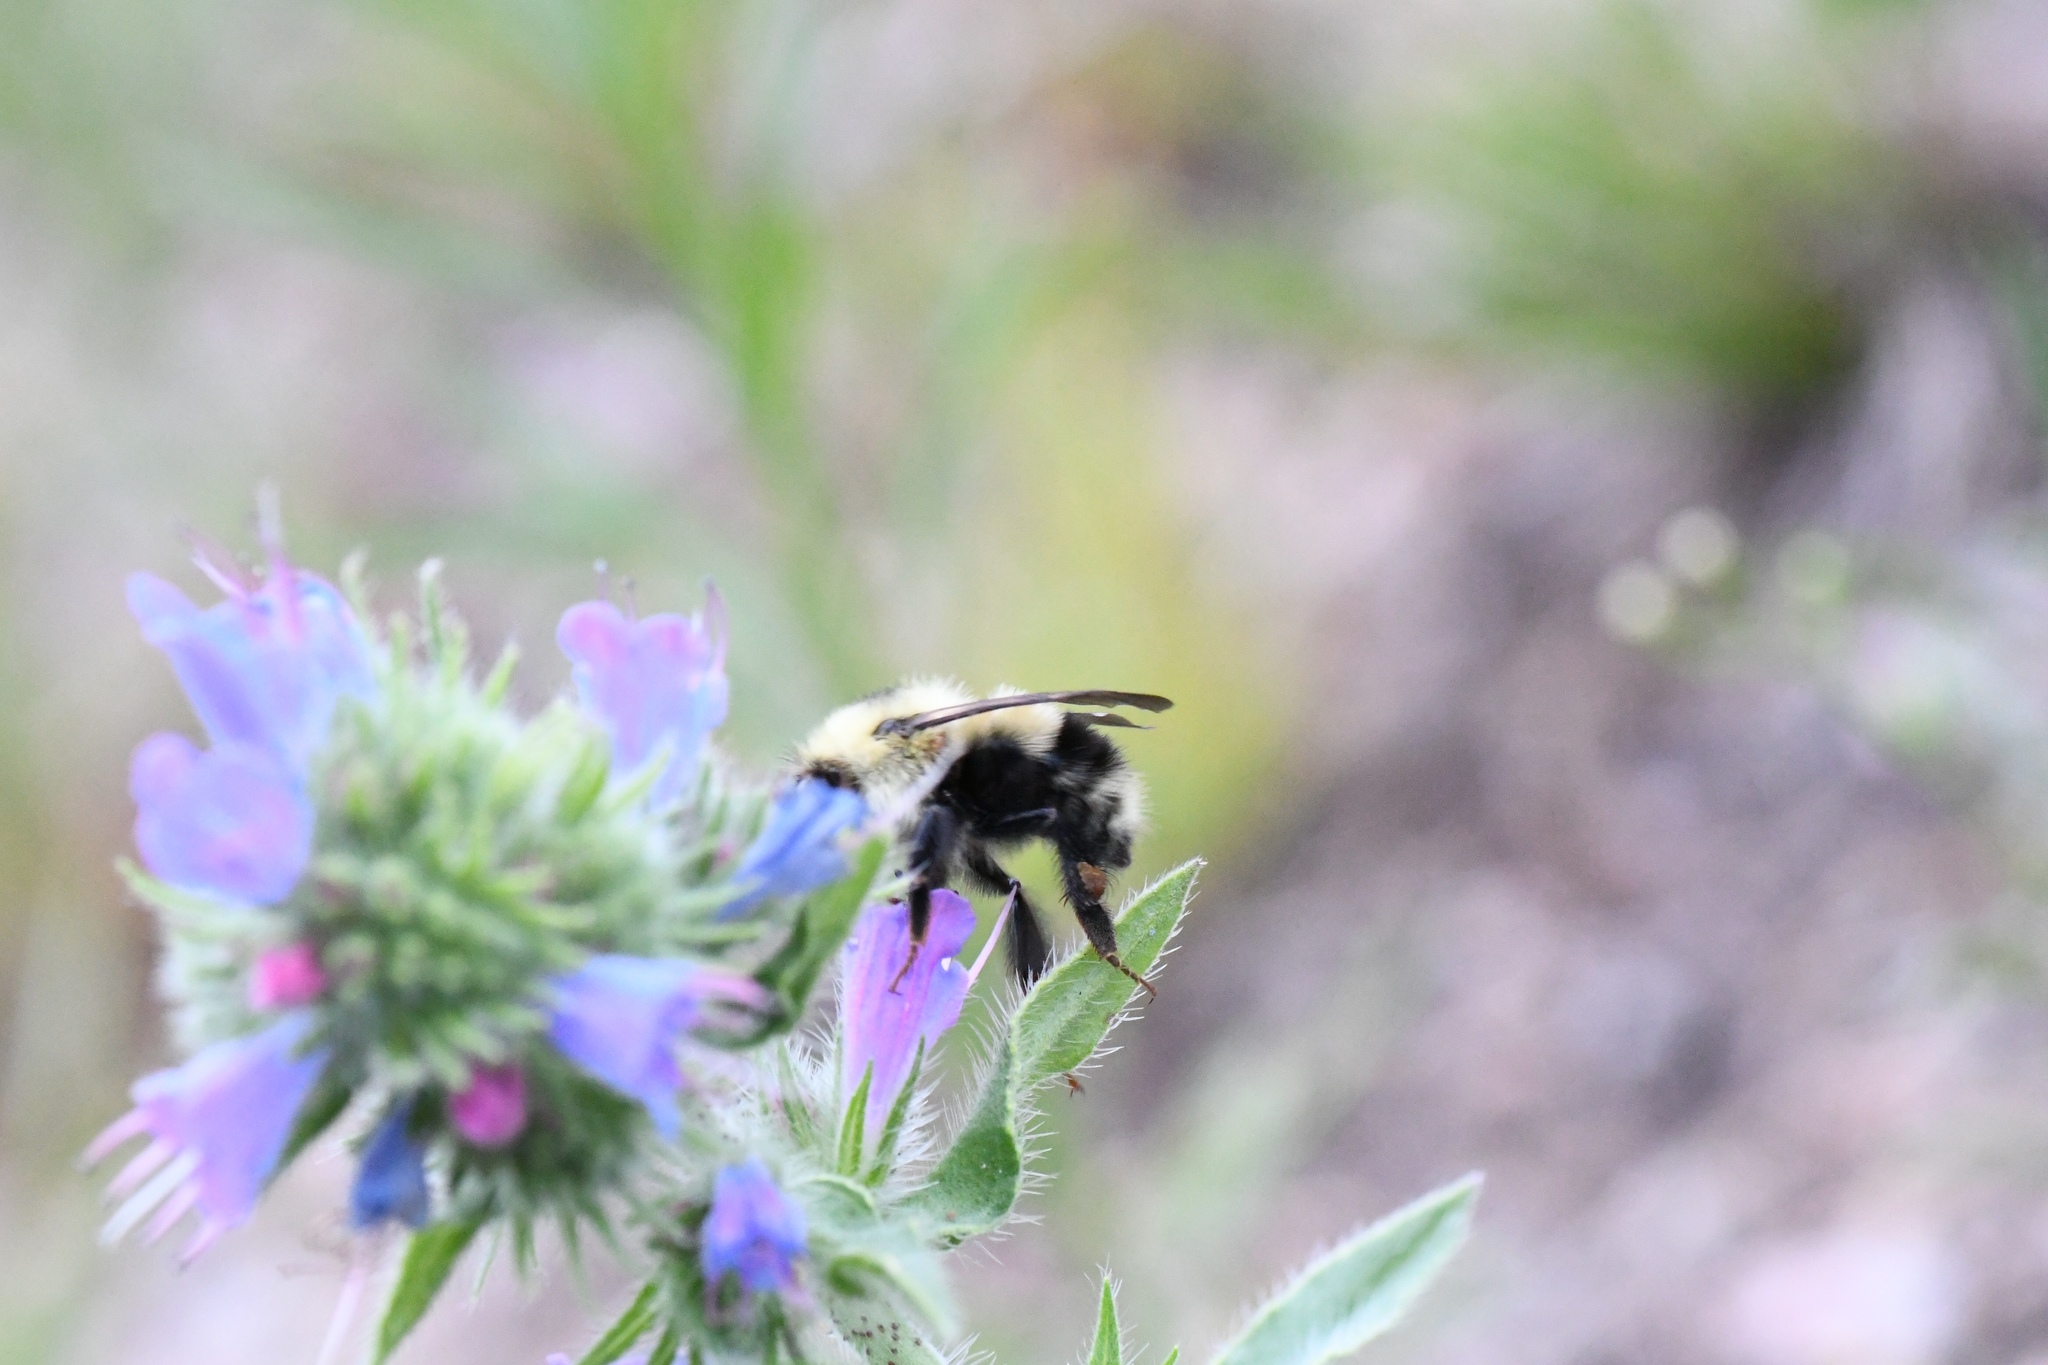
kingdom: Animalia
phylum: Arthropoda
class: Insecta
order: Hymenoptera
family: Apidae
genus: Bombus
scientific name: Bombus sandersoni
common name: Sanderson bumble bee
